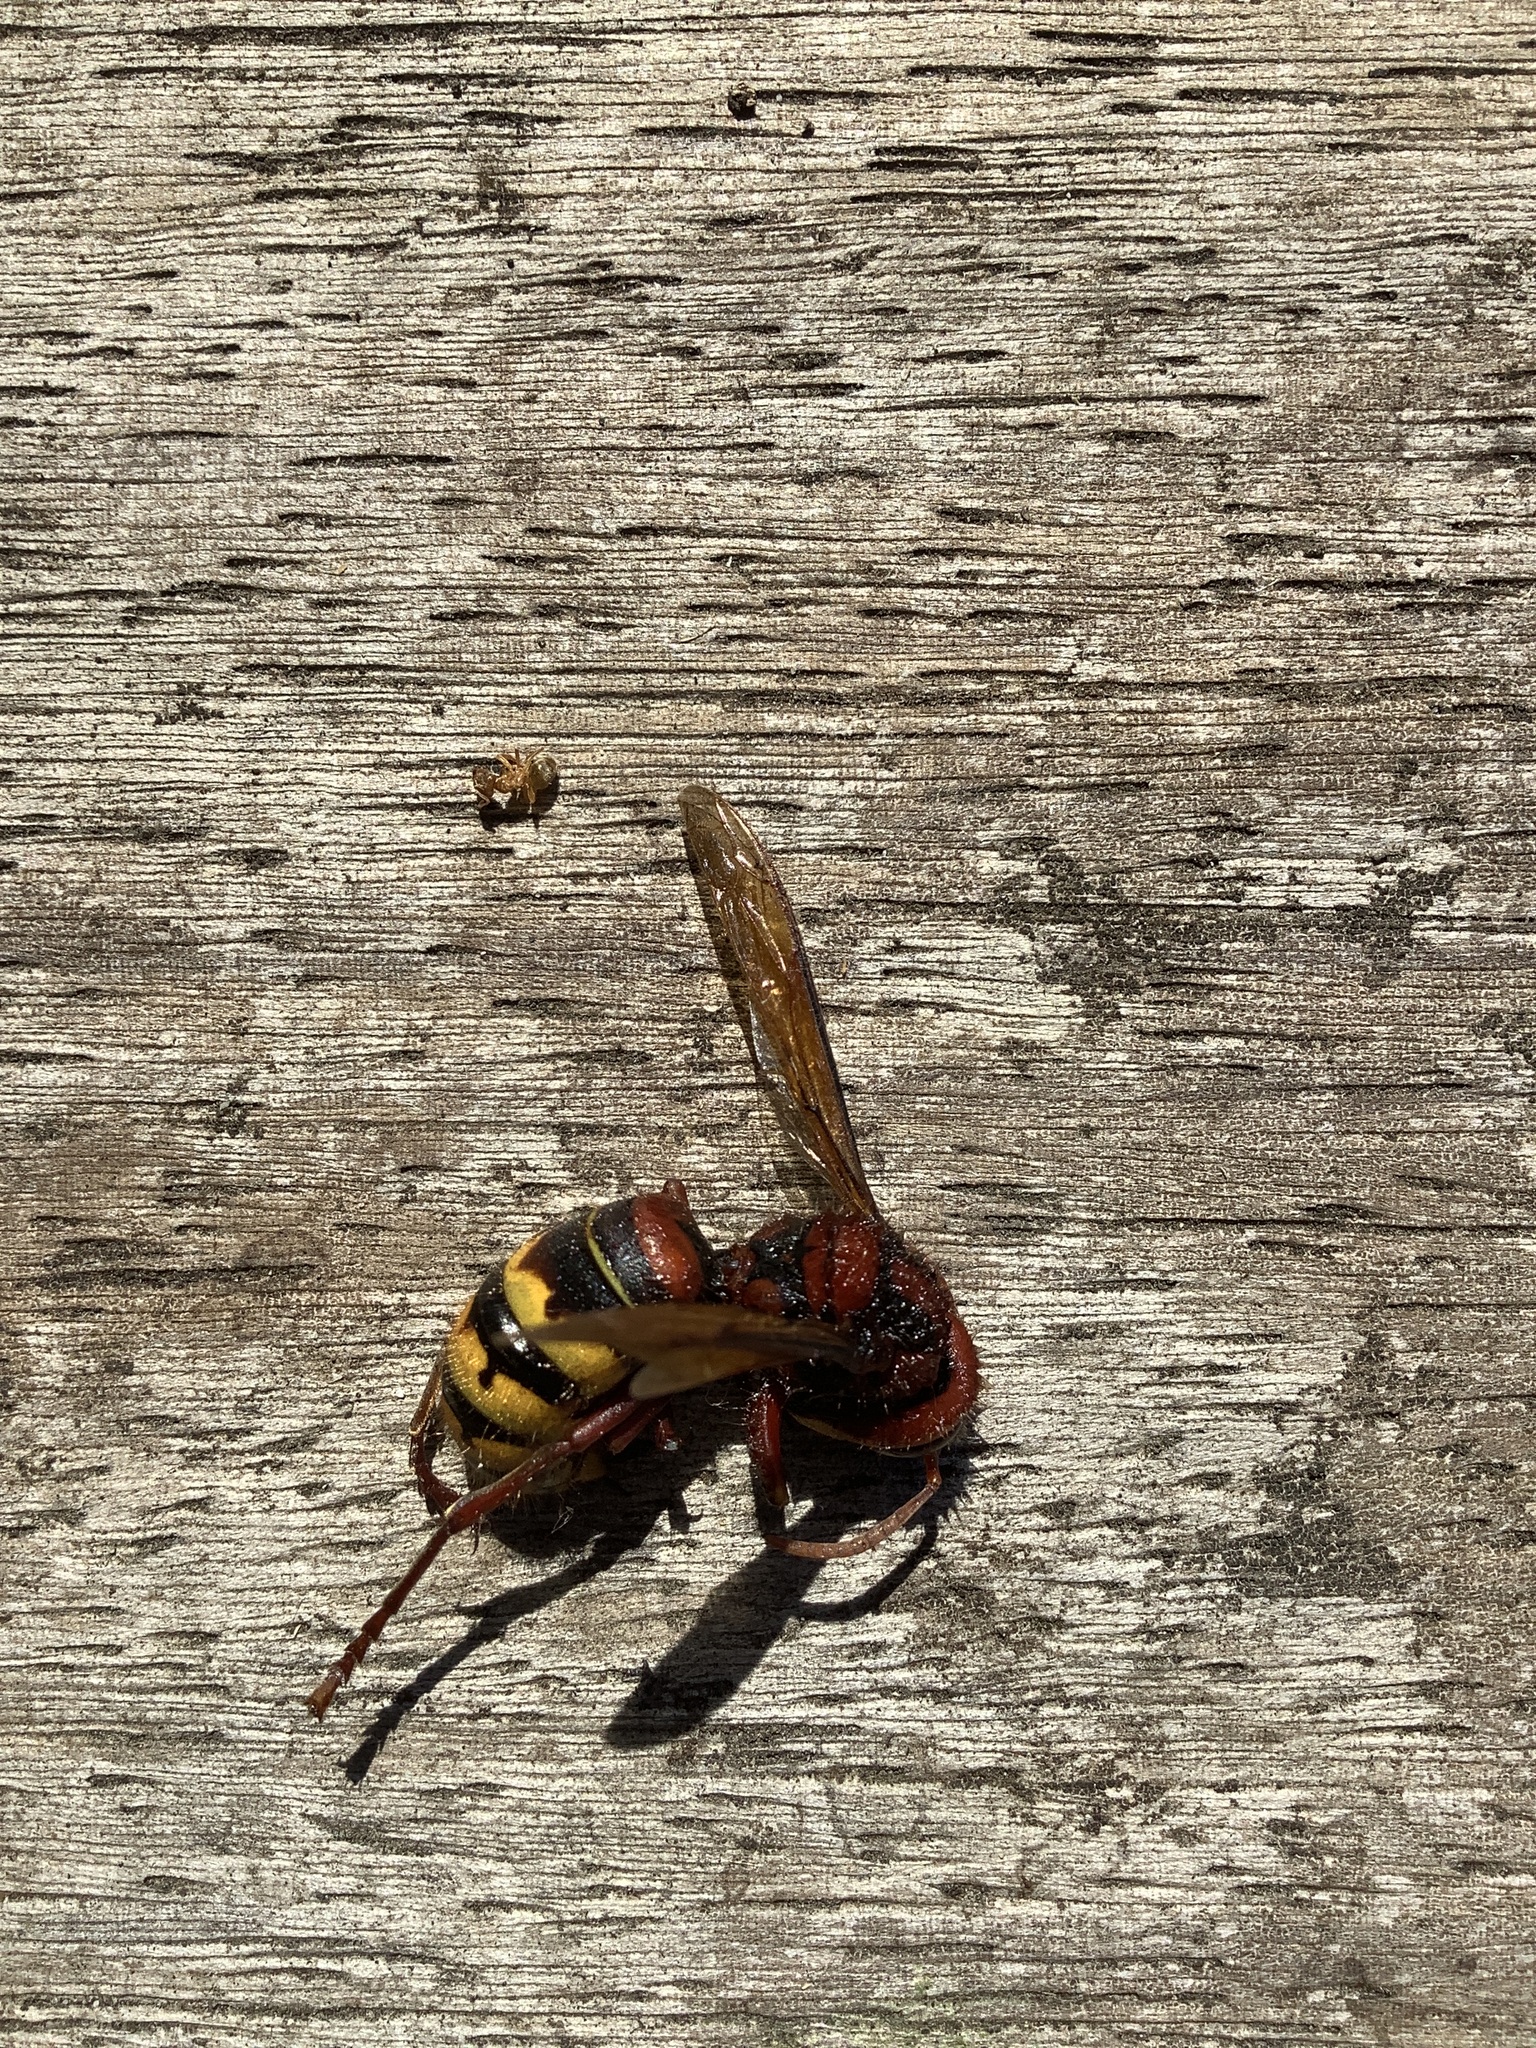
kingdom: Animalia
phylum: Arthropoda
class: Insecta
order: Hymenoptera
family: Vespidae
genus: Vespa
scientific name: Vespa crabro
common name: Hornet
